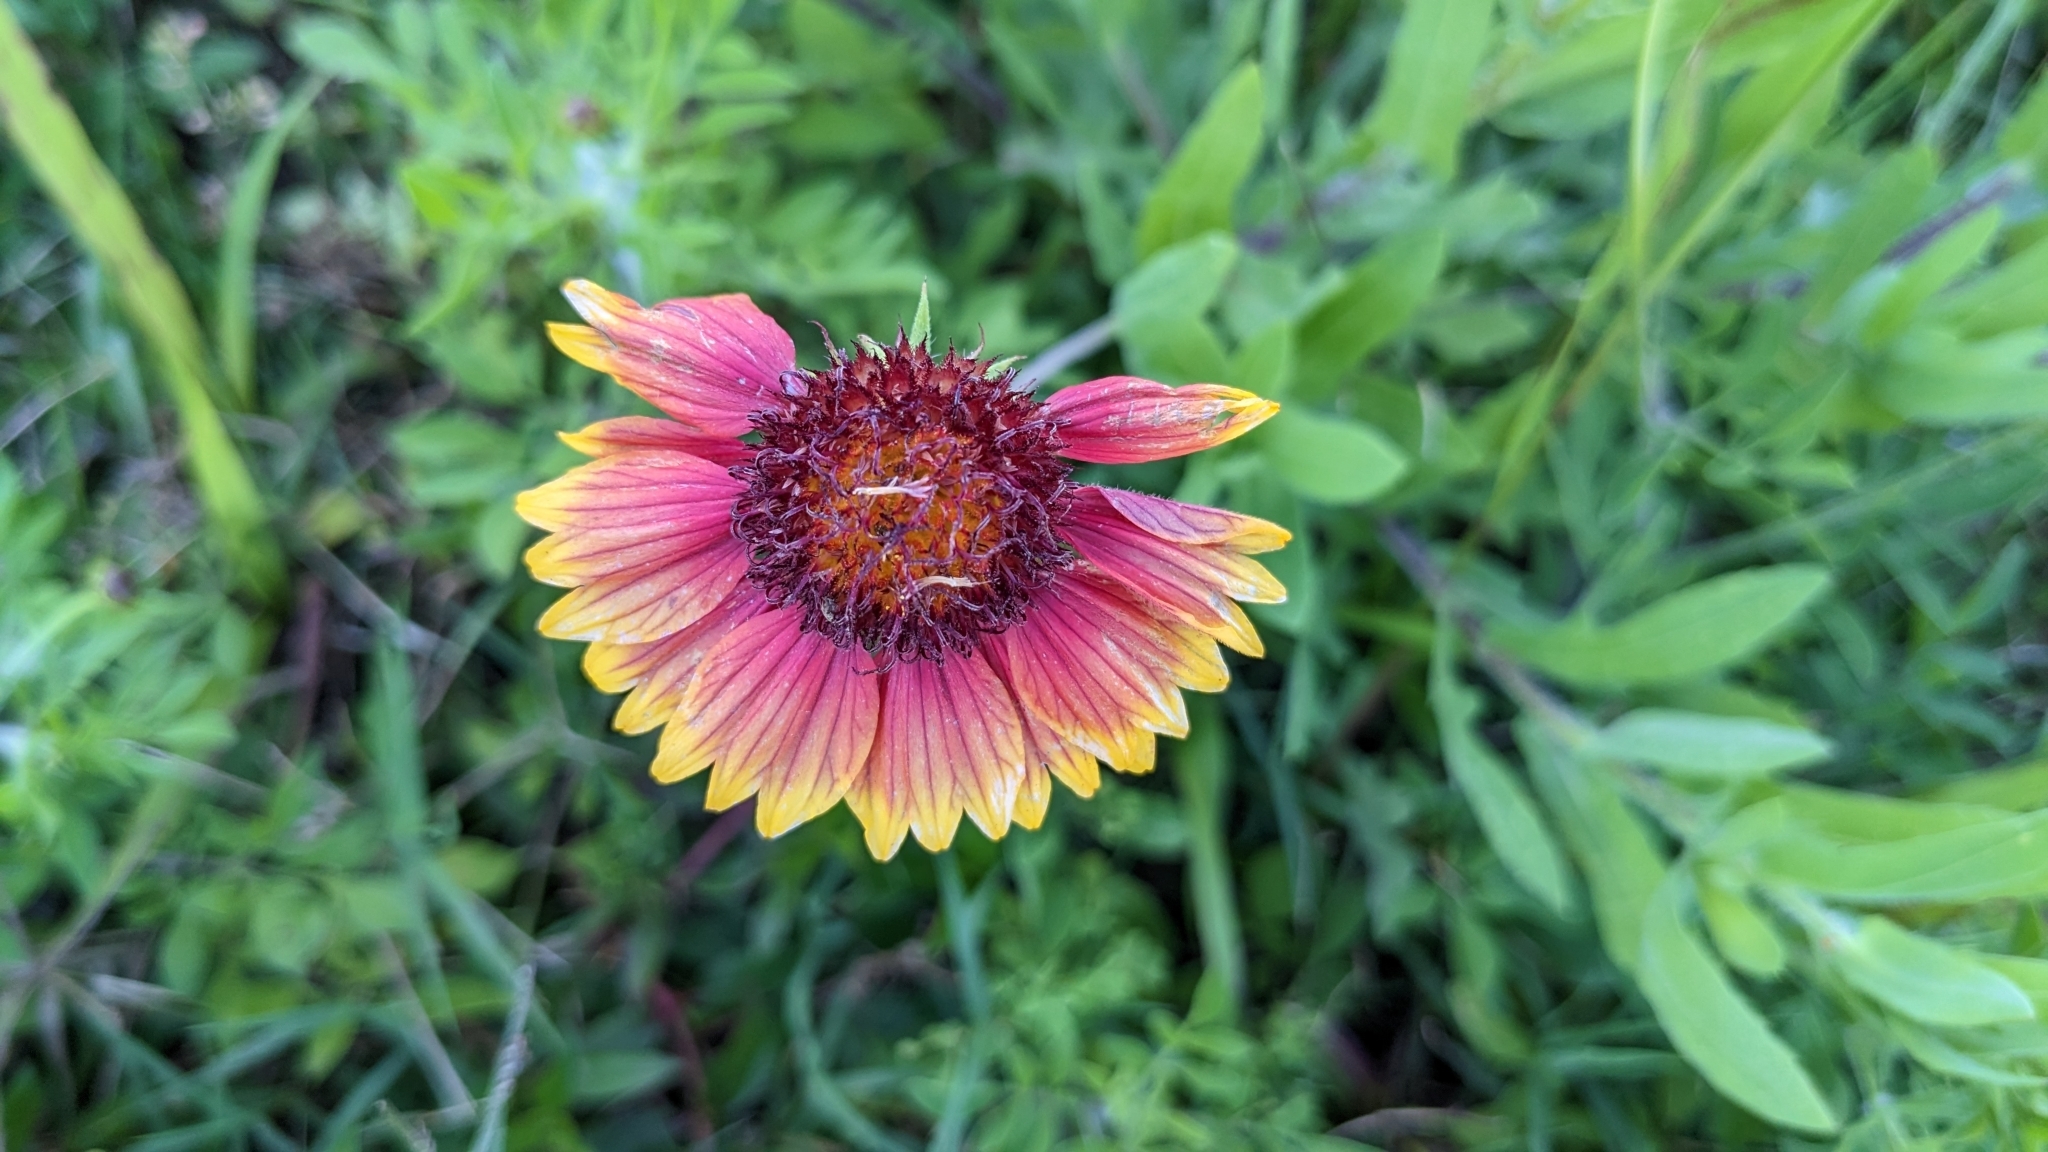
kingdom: Plantae
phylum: Tracheophyta
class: Magnoliopsida
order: Asterales
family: Asteraceae
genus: Gaillardia
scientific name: Gaillardia pulchella
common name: Firewheel
